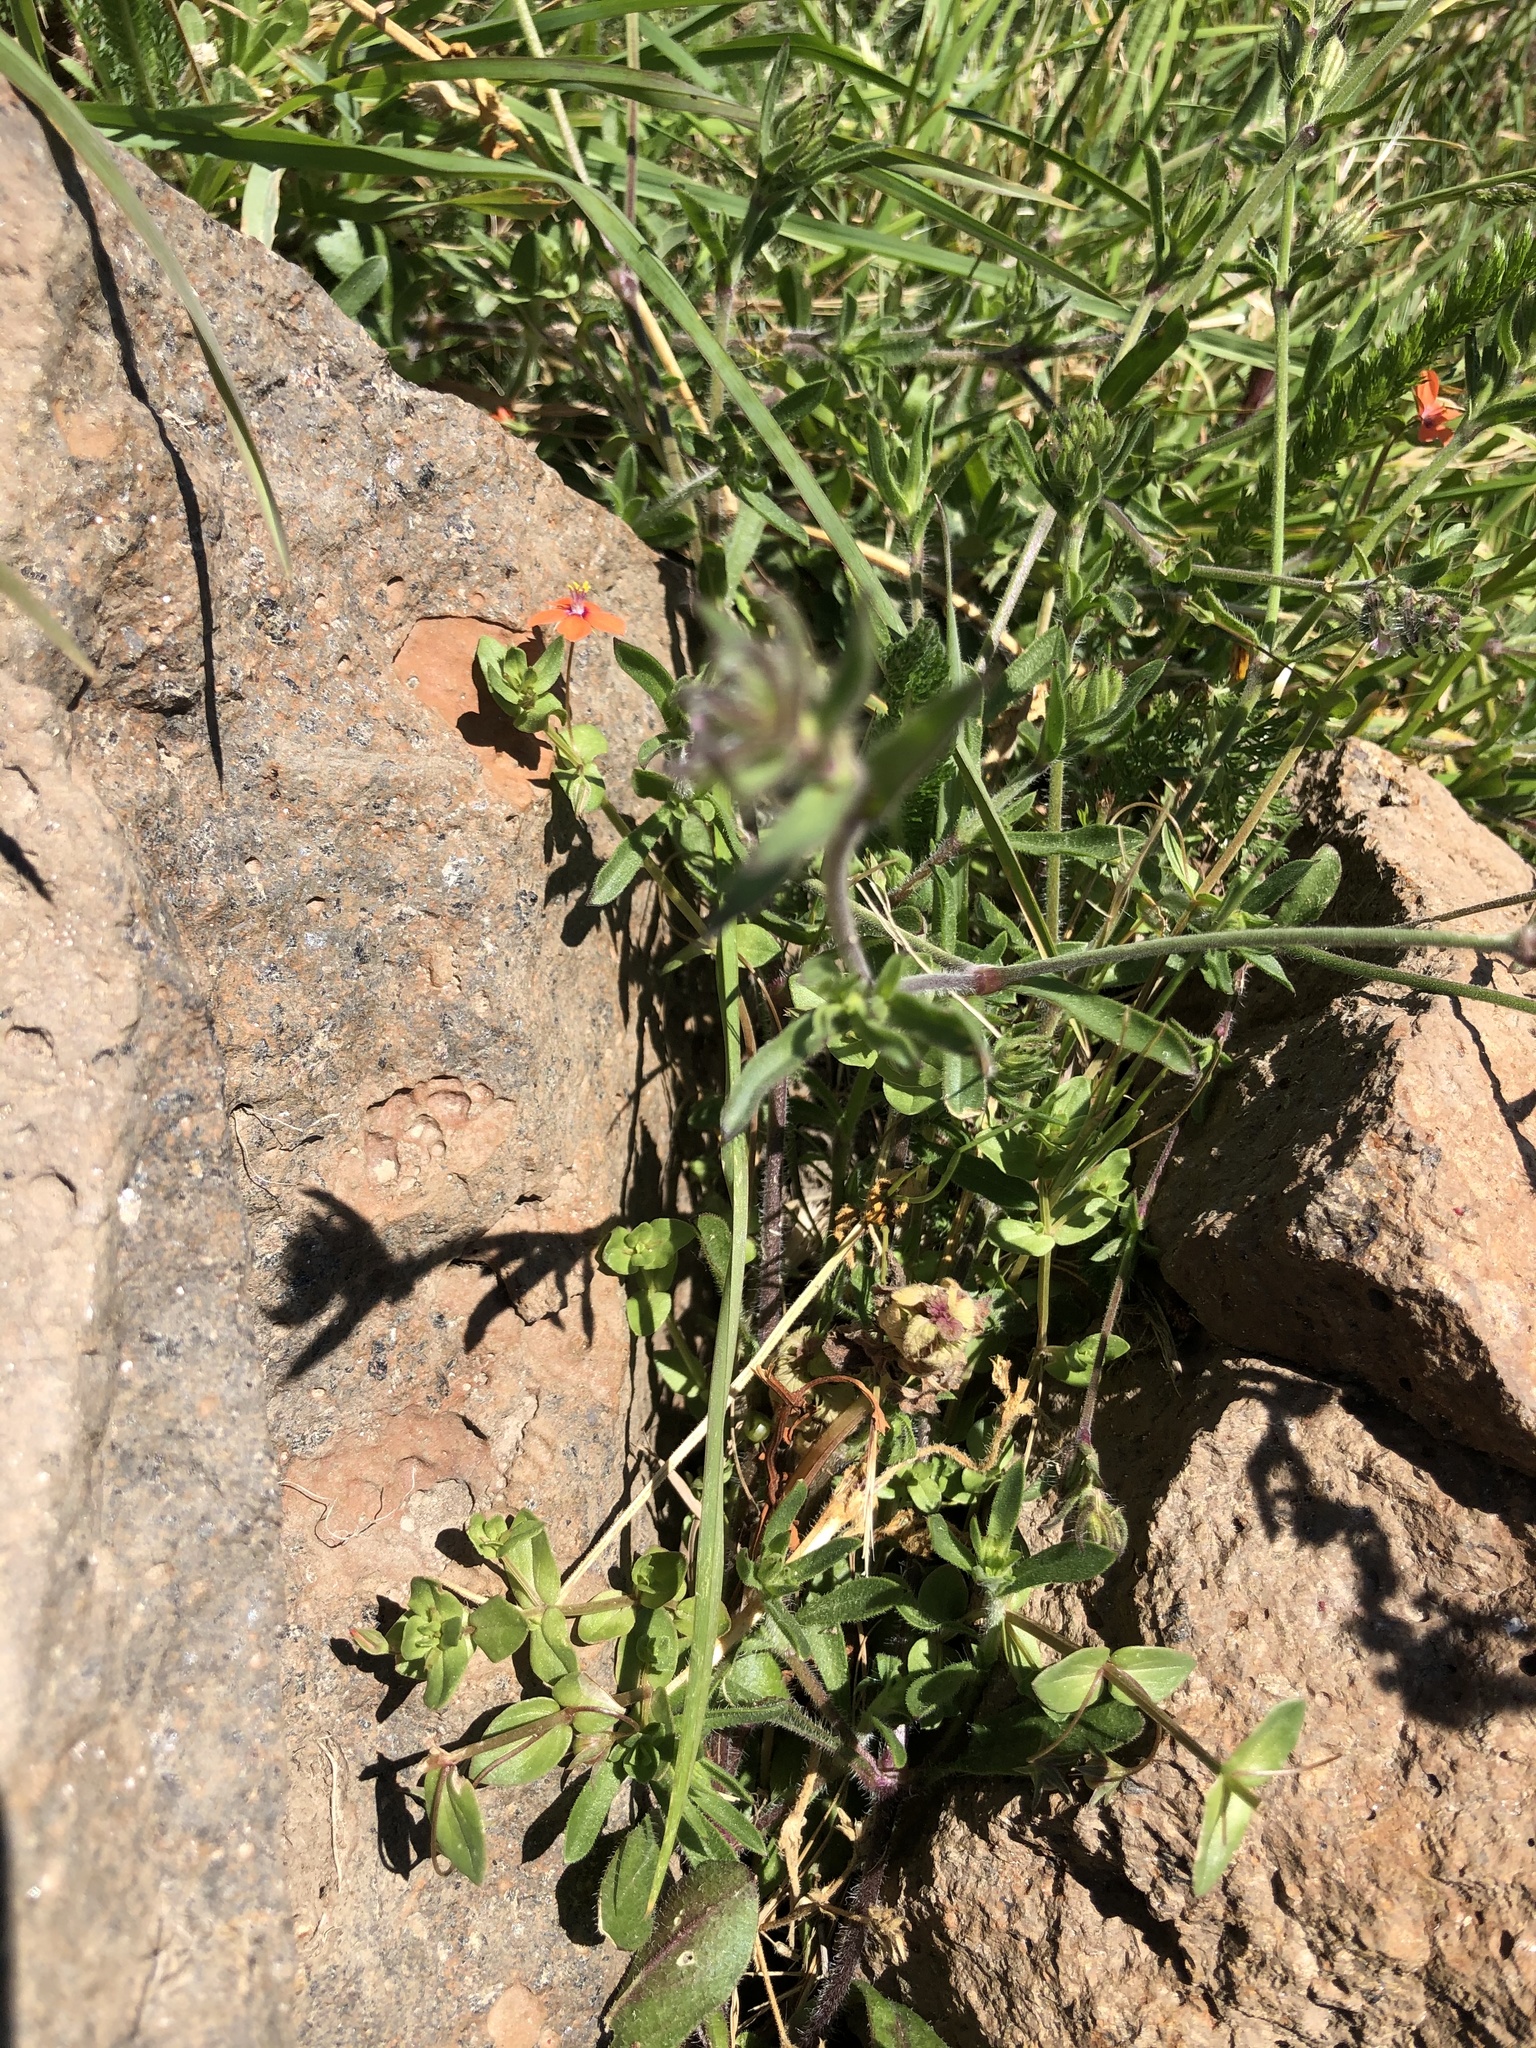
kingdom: Plantae
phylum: Tracheophyta
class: Magnoliopsida
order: Ericales
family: Primulaceae
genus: Lysimachia
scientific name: Lysimachia arvensis
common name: Scarlet pimpernel
